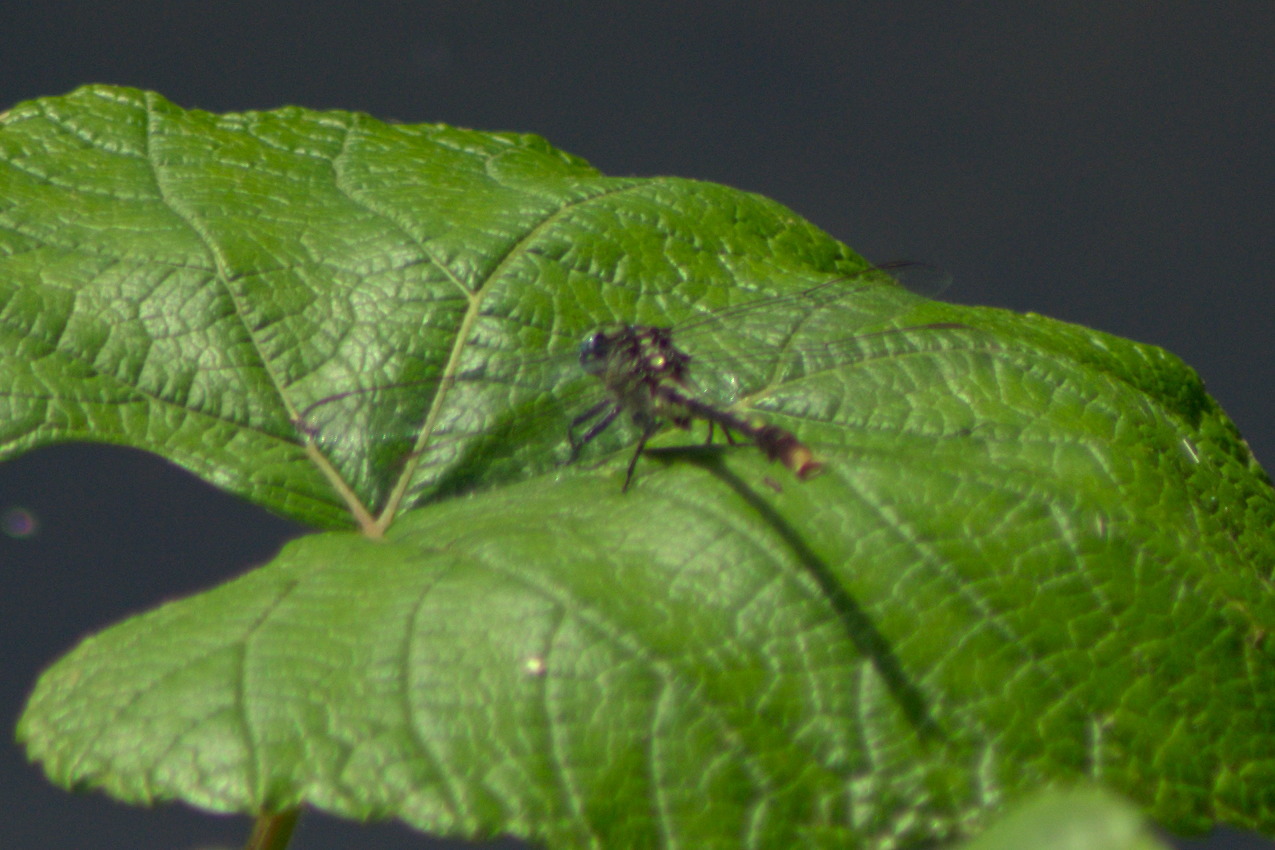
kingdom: Animalia
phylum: Arthropoda
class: Insecta
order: Odonata
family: Gomphidae
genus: Arigomphus
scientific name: Arigomphus villosipes
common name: Unicorn clubtail
